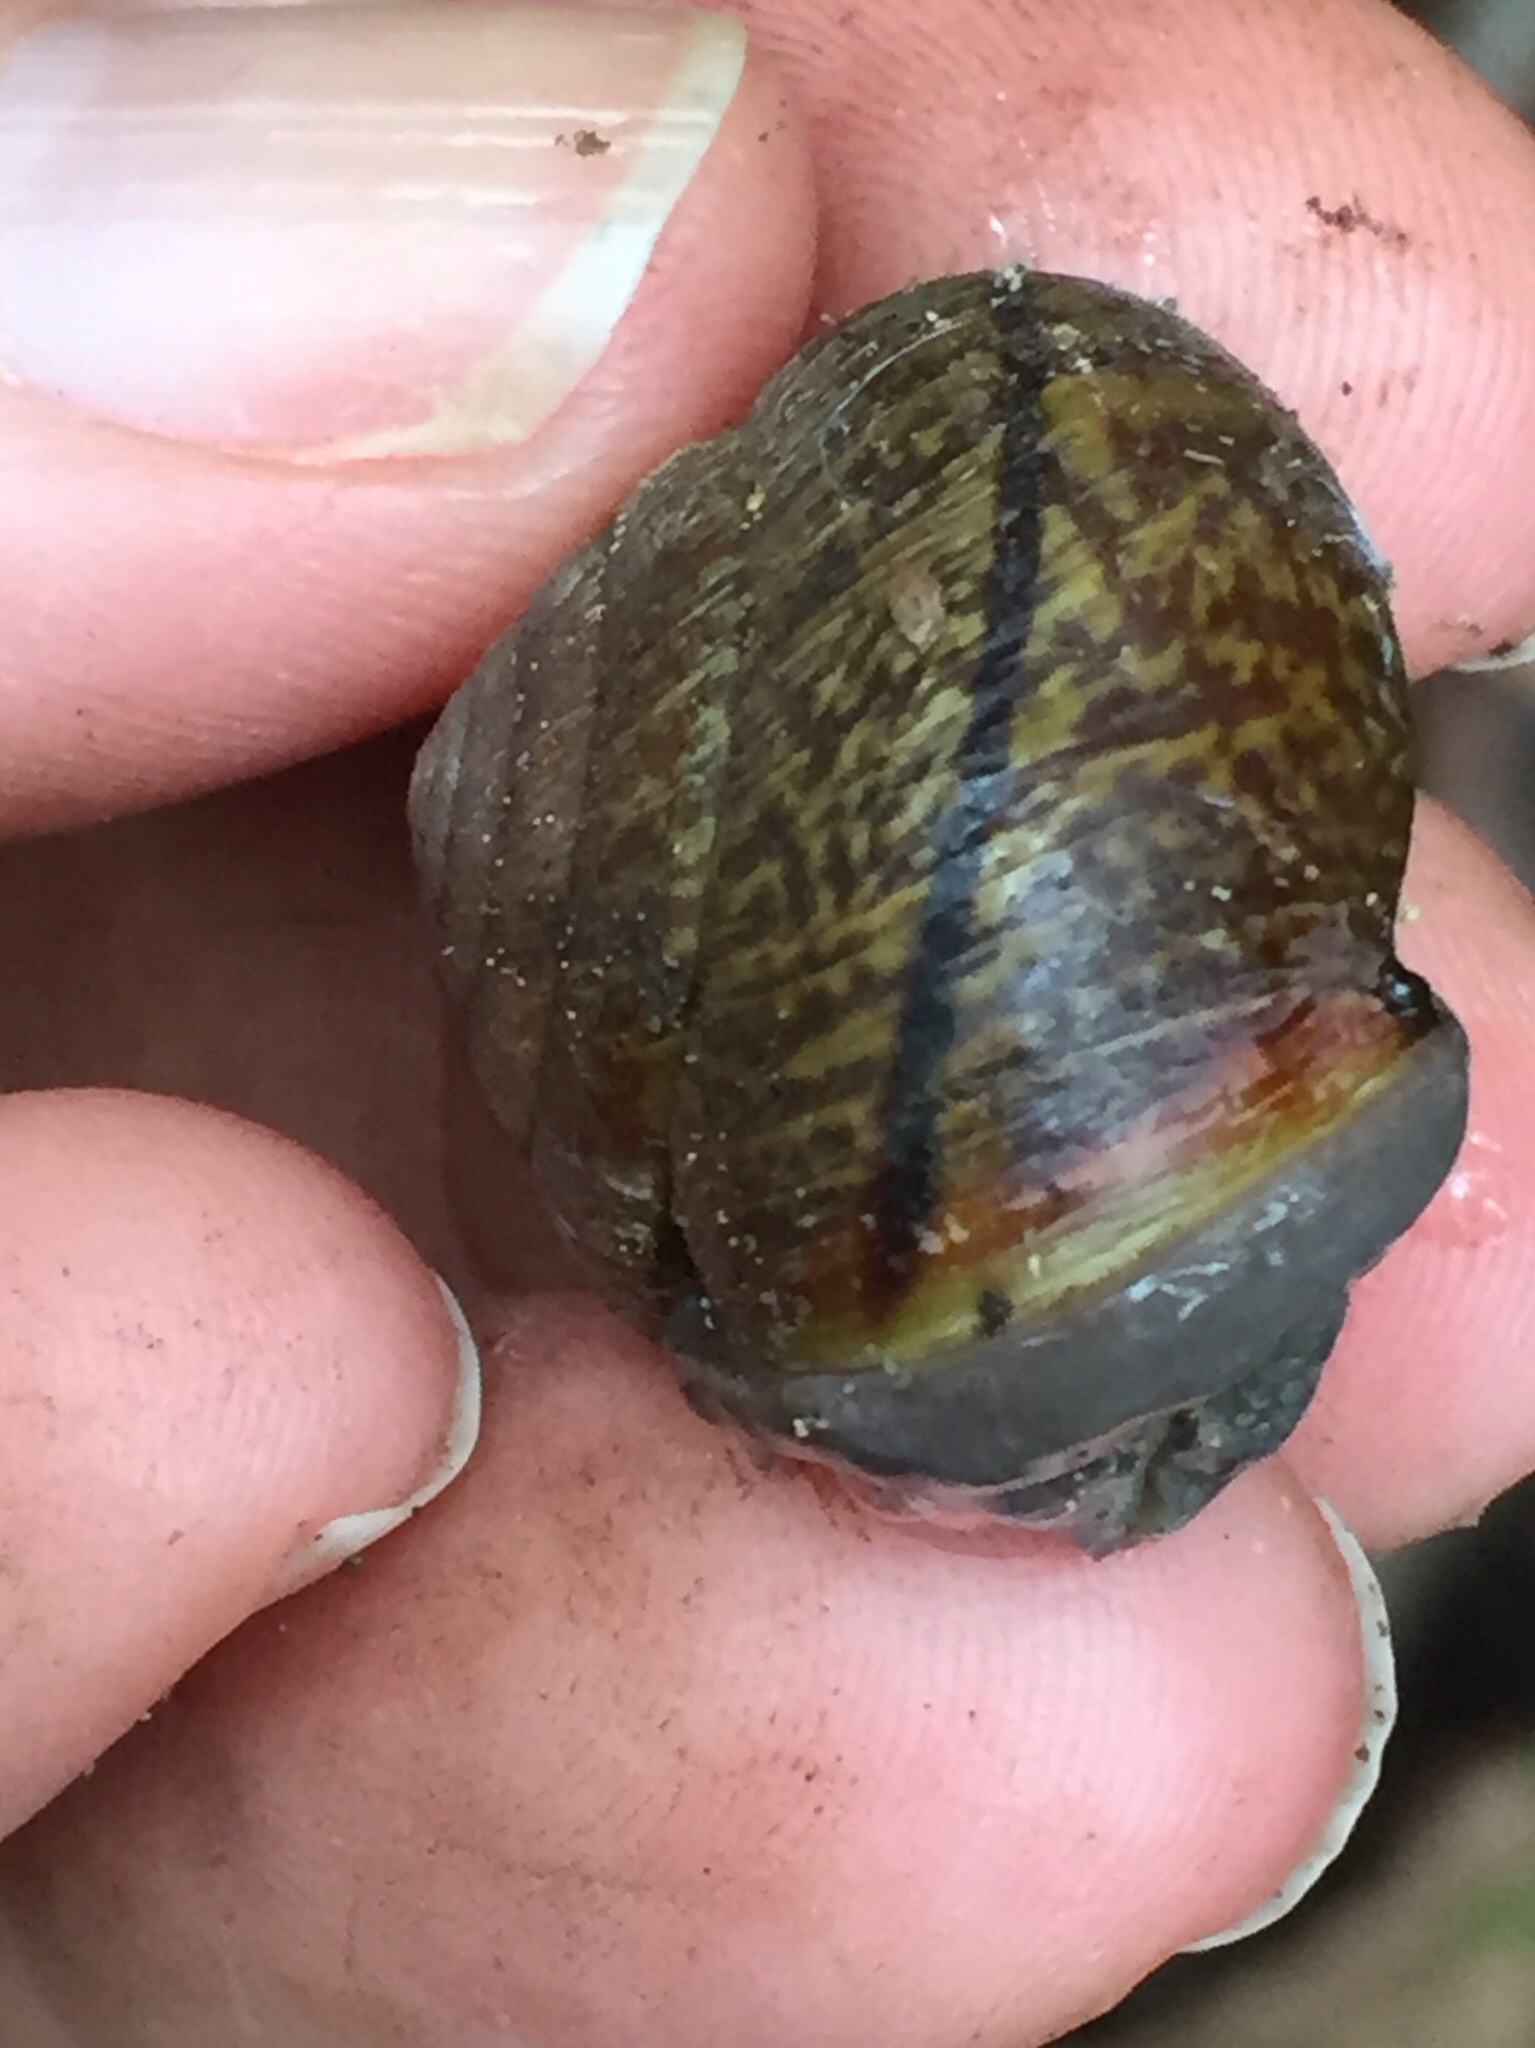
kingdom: Animalia
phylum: Mollusca
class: Gastropoda
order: Stylommatophora
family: Xanthonychidae
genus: Helminthoglypta
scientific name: Helminthoglypta arrosa
